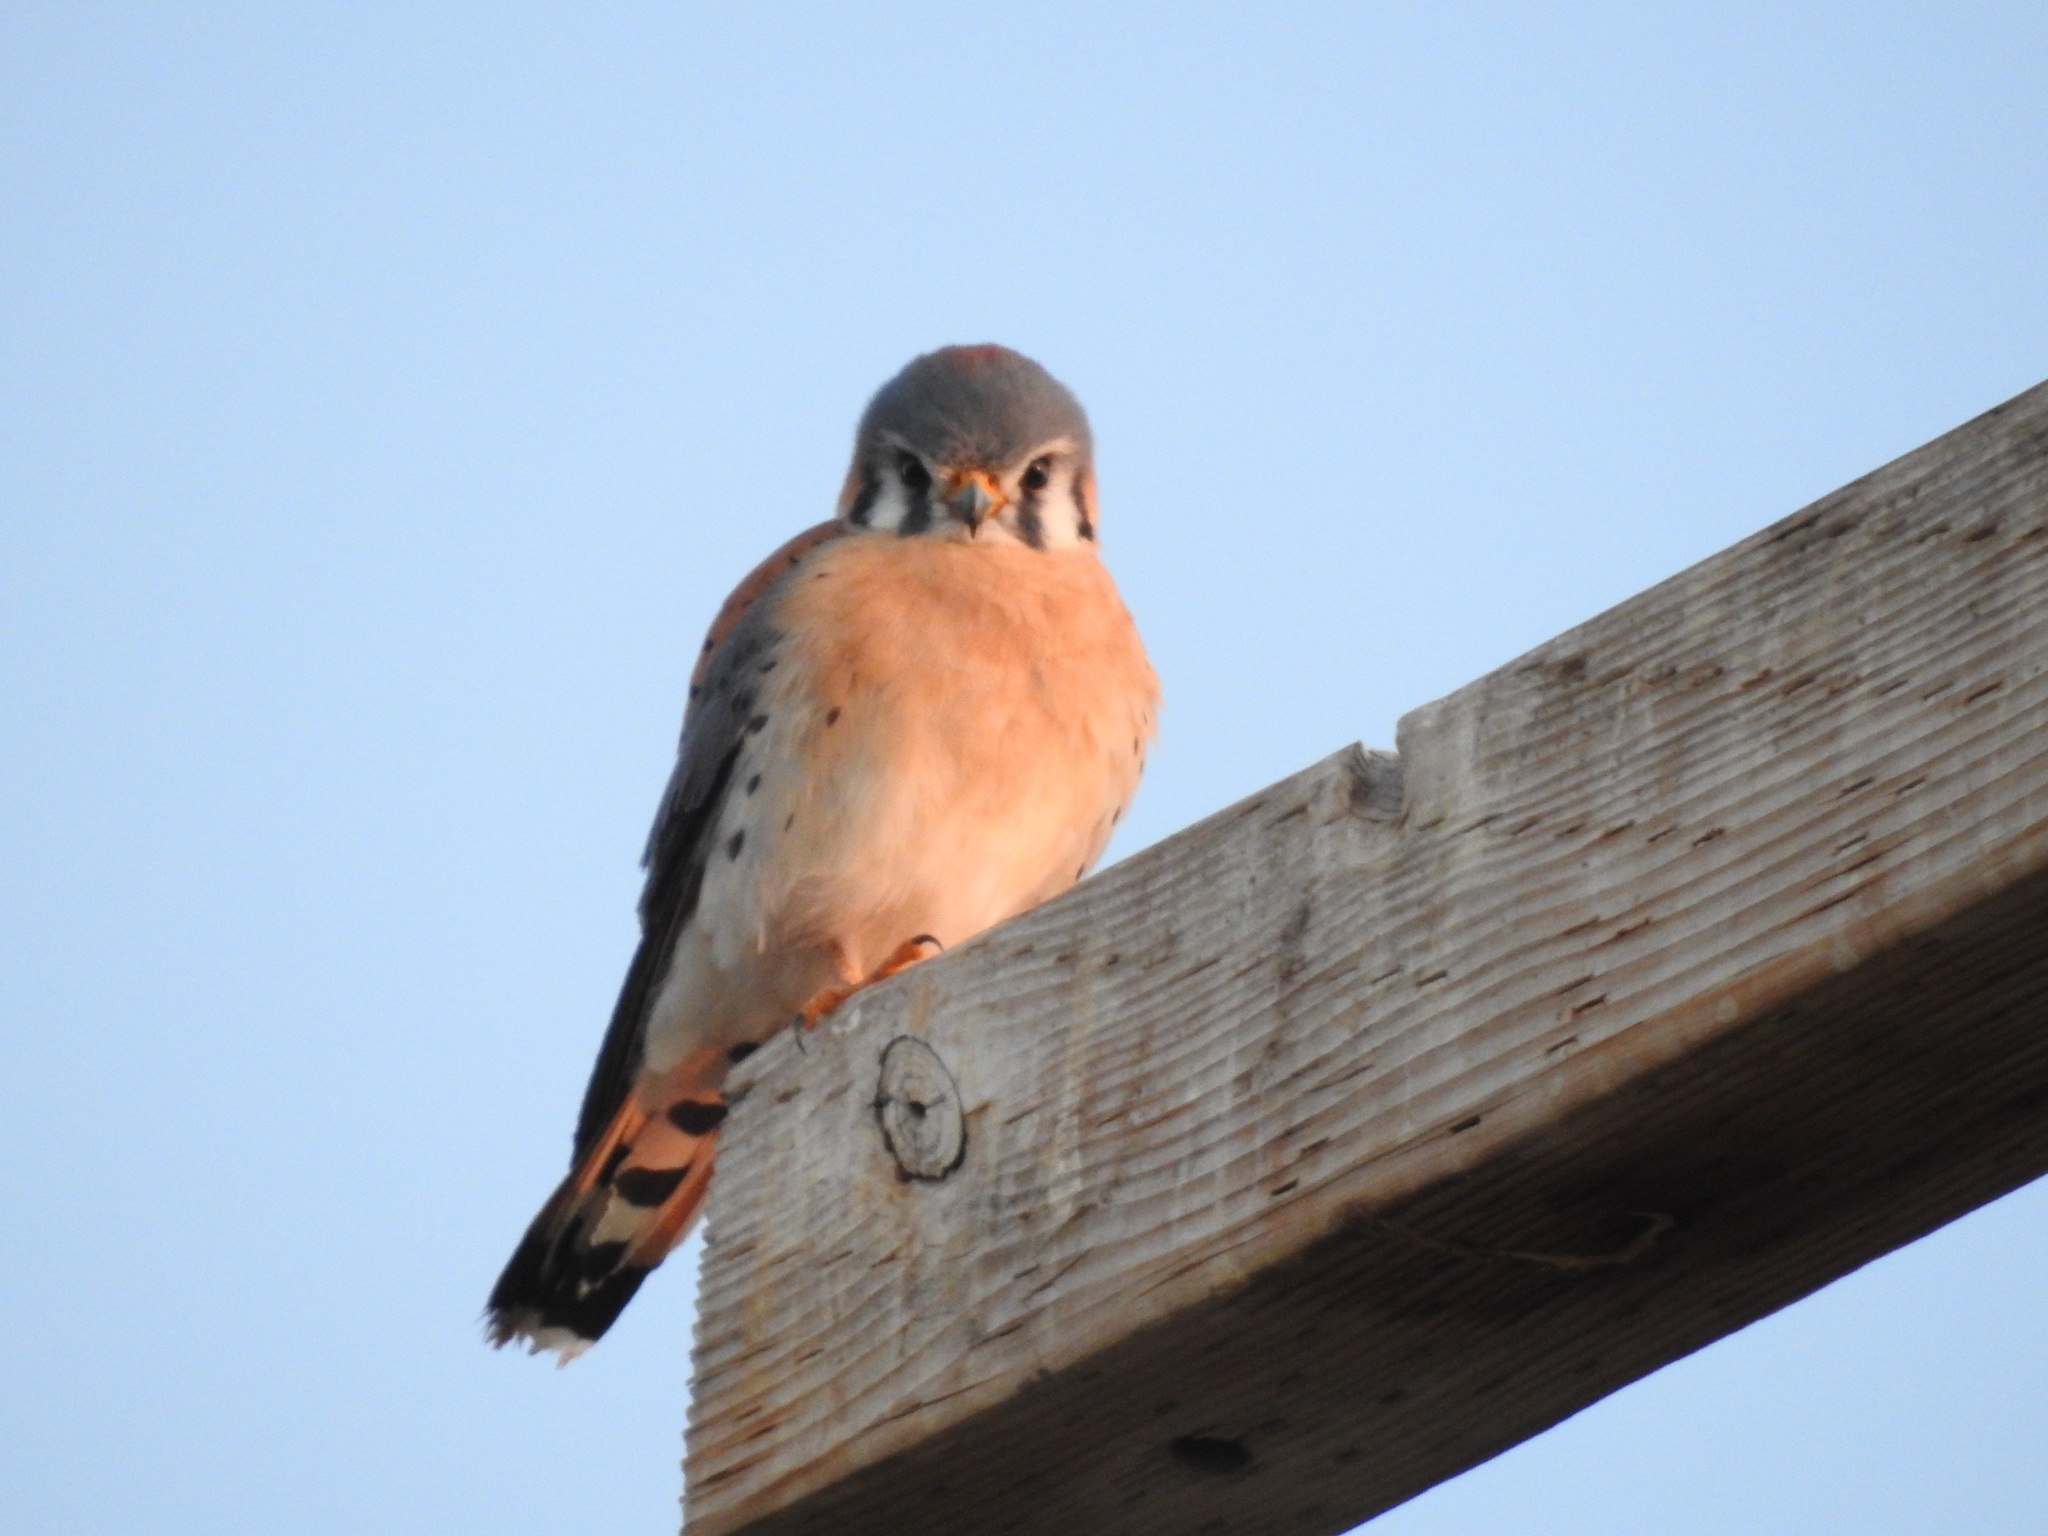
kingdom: Animalia
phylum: Chordata
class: Aves
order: Falconiformes
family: Falconidae
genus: Falco
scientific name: Falco sparverius
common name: American kestrel
